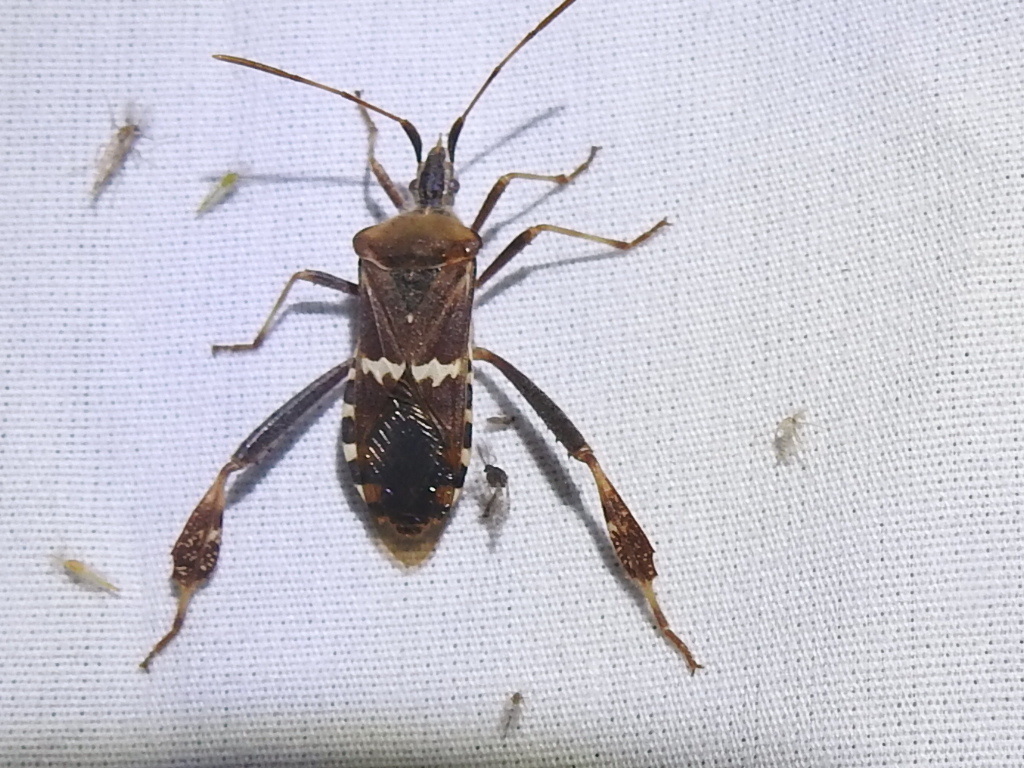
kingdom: Animalia
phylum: Arthropoda
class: Insecta
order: Hemiptera
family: Coreidae
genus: Leptoglossus
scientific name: Leptoglossus clypealis
